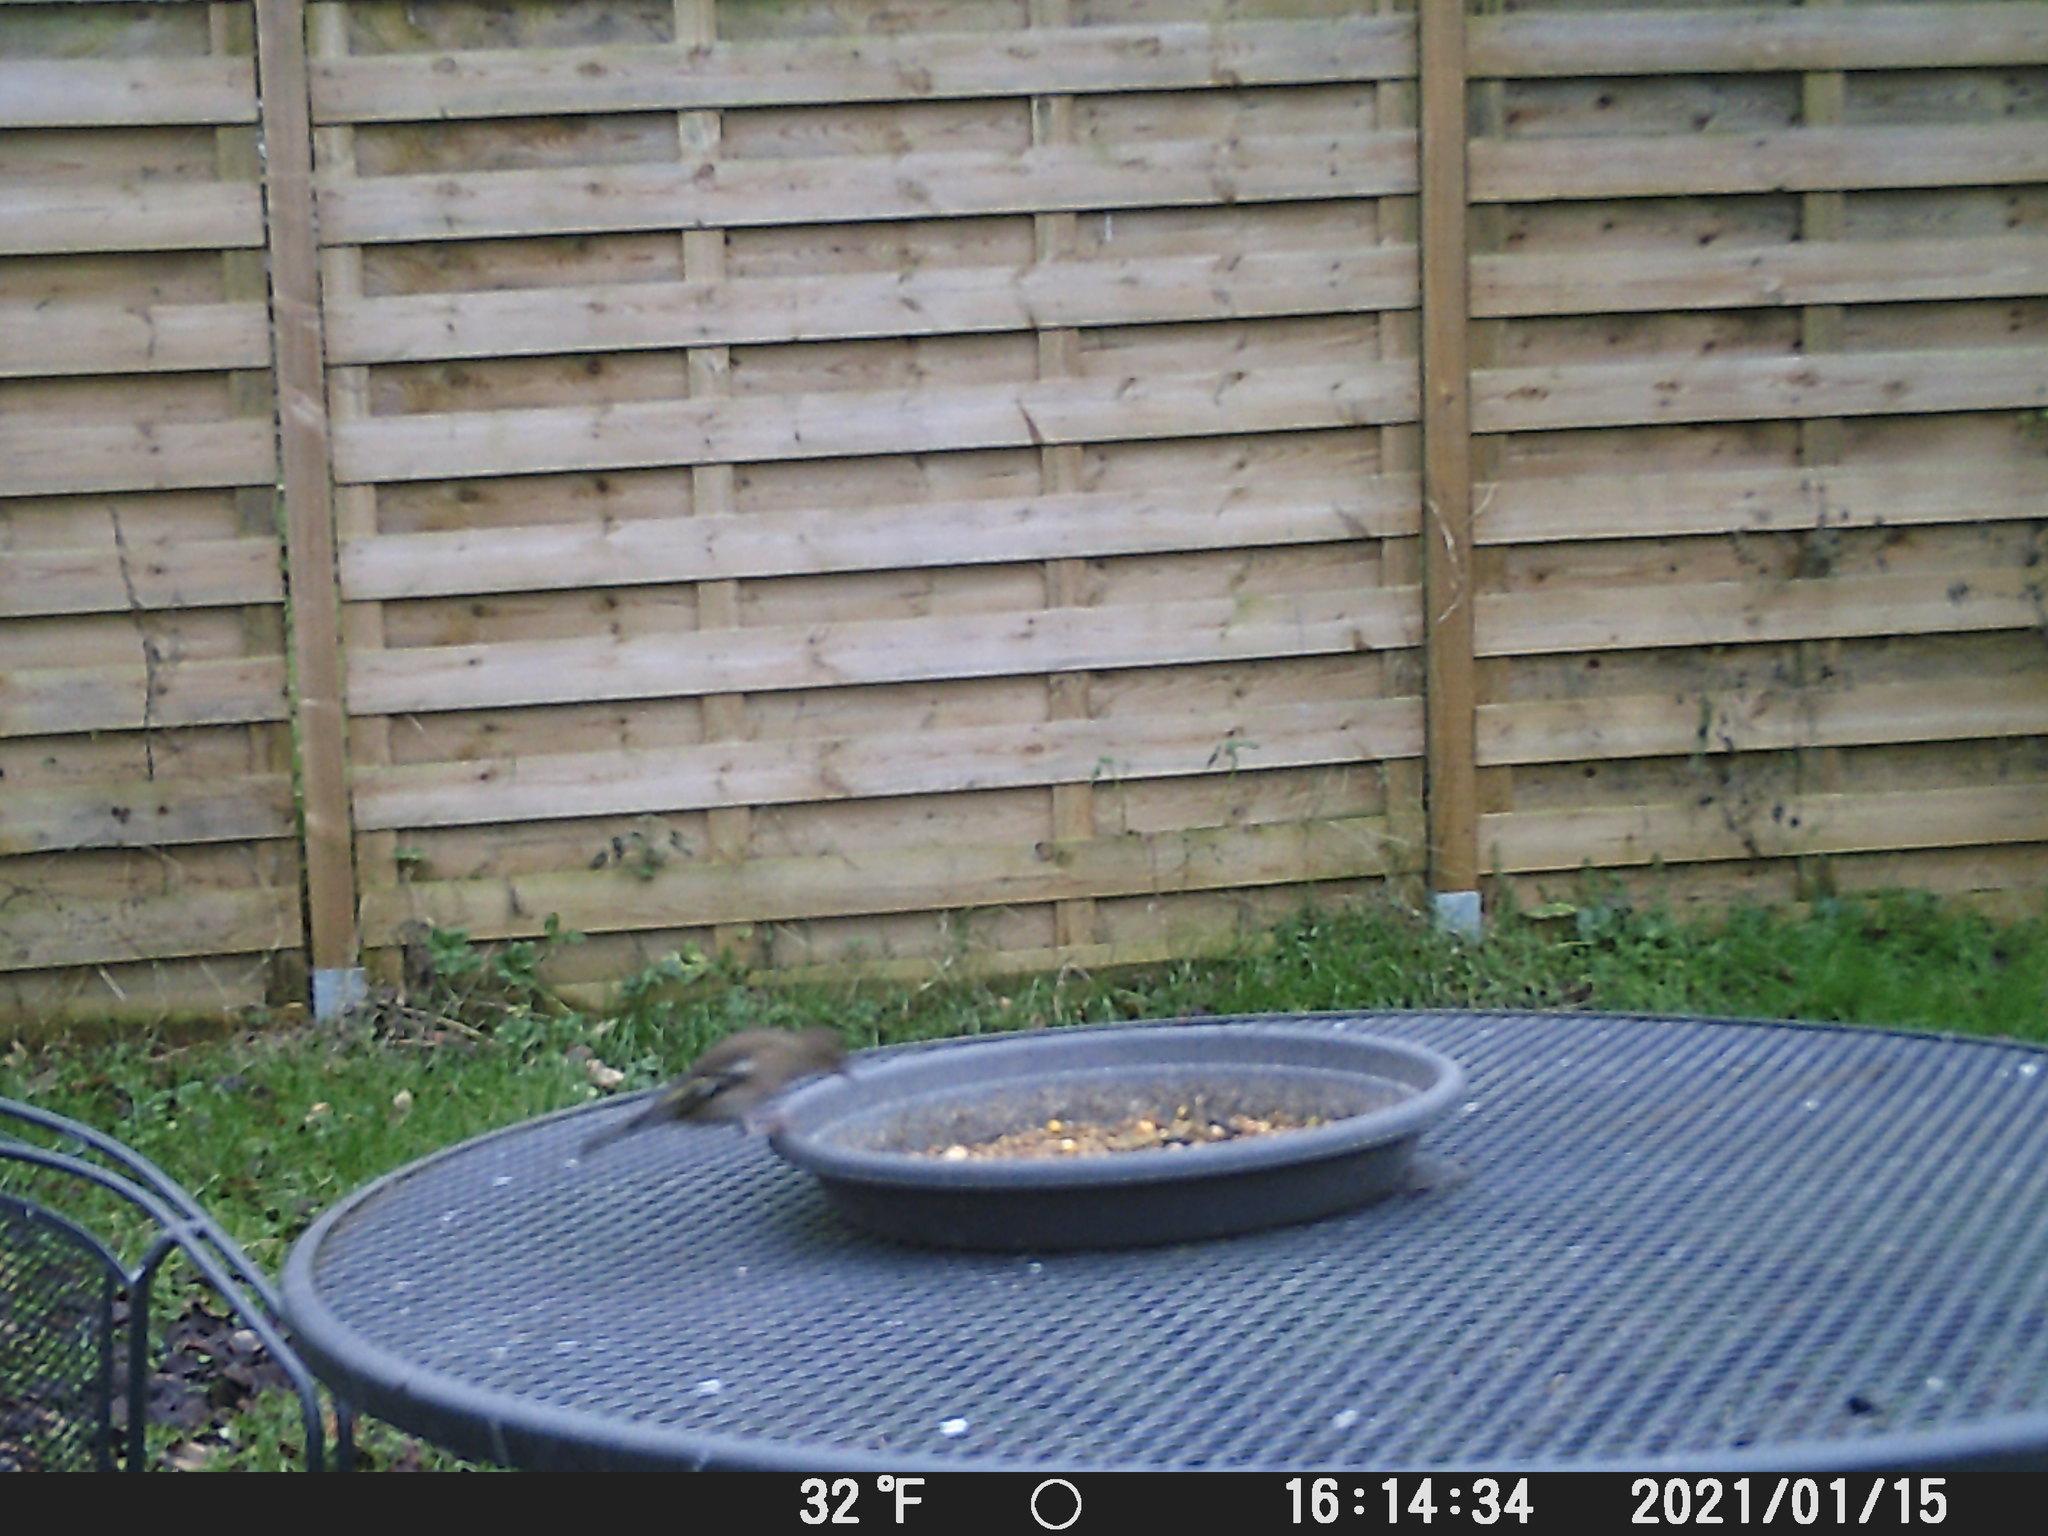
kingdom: Animalia
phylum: Chordata
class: Aves
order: Passeriformes
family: Fringillidae
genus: Fringilla
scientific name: Fringilla coelebs
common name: Common chaffinch
